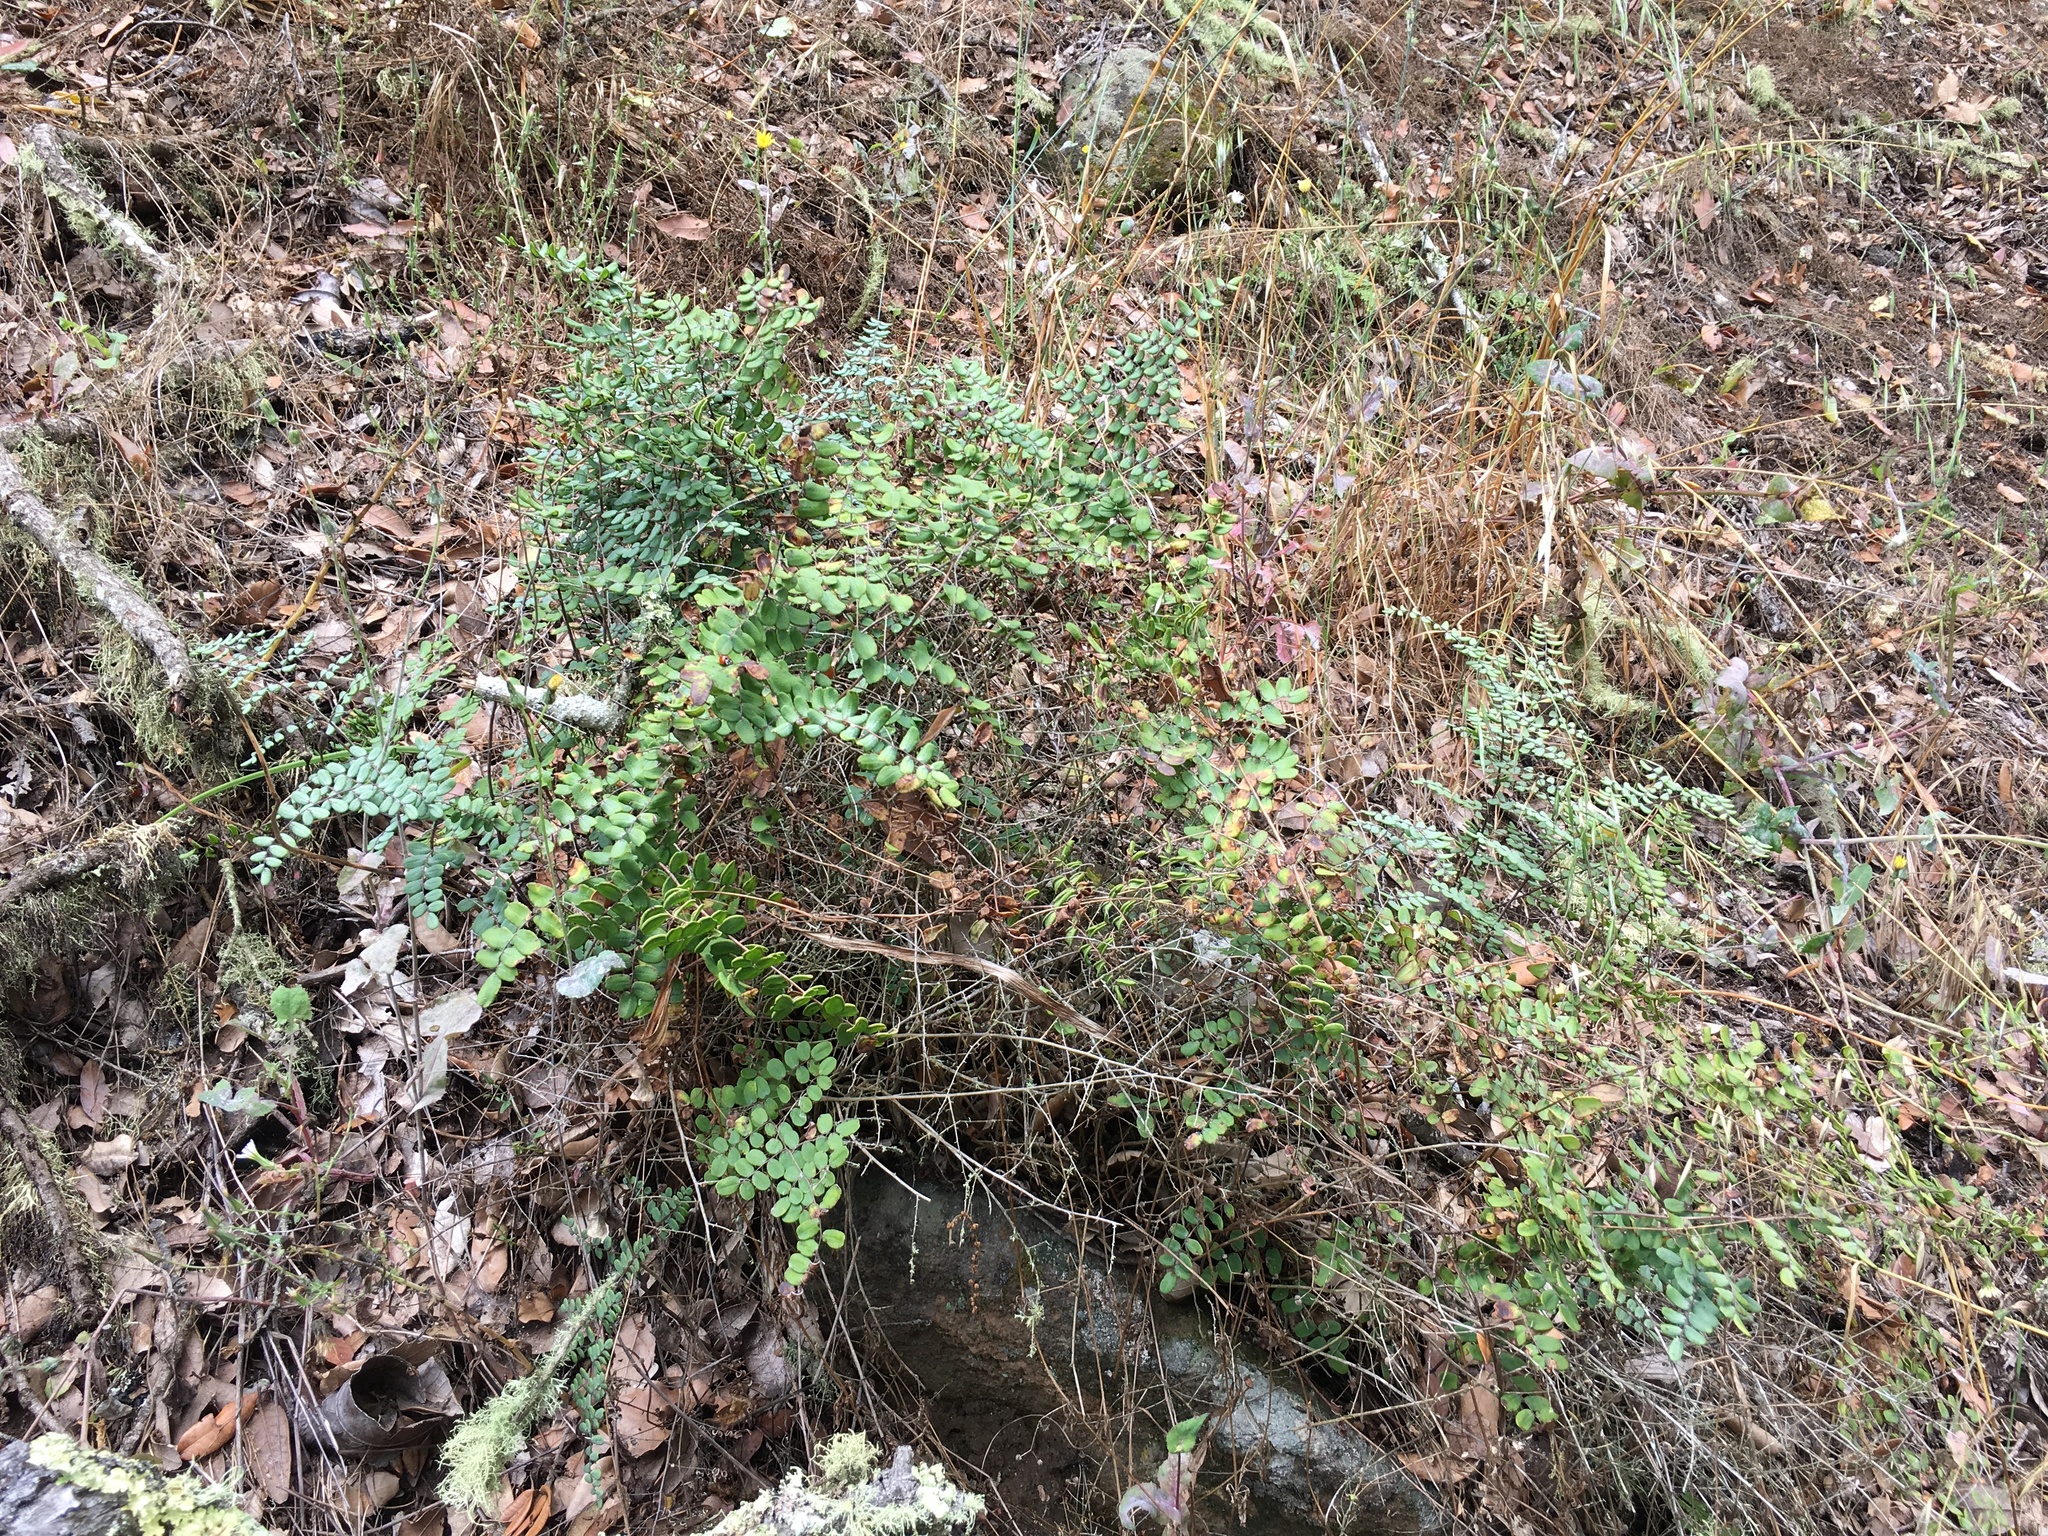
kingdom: Plantae
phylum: Tracheophyta
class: Polypodiopsida
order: Polypodiales
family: Pteridaceae
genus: Pellaea
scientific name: Pellaea andromedifolia
